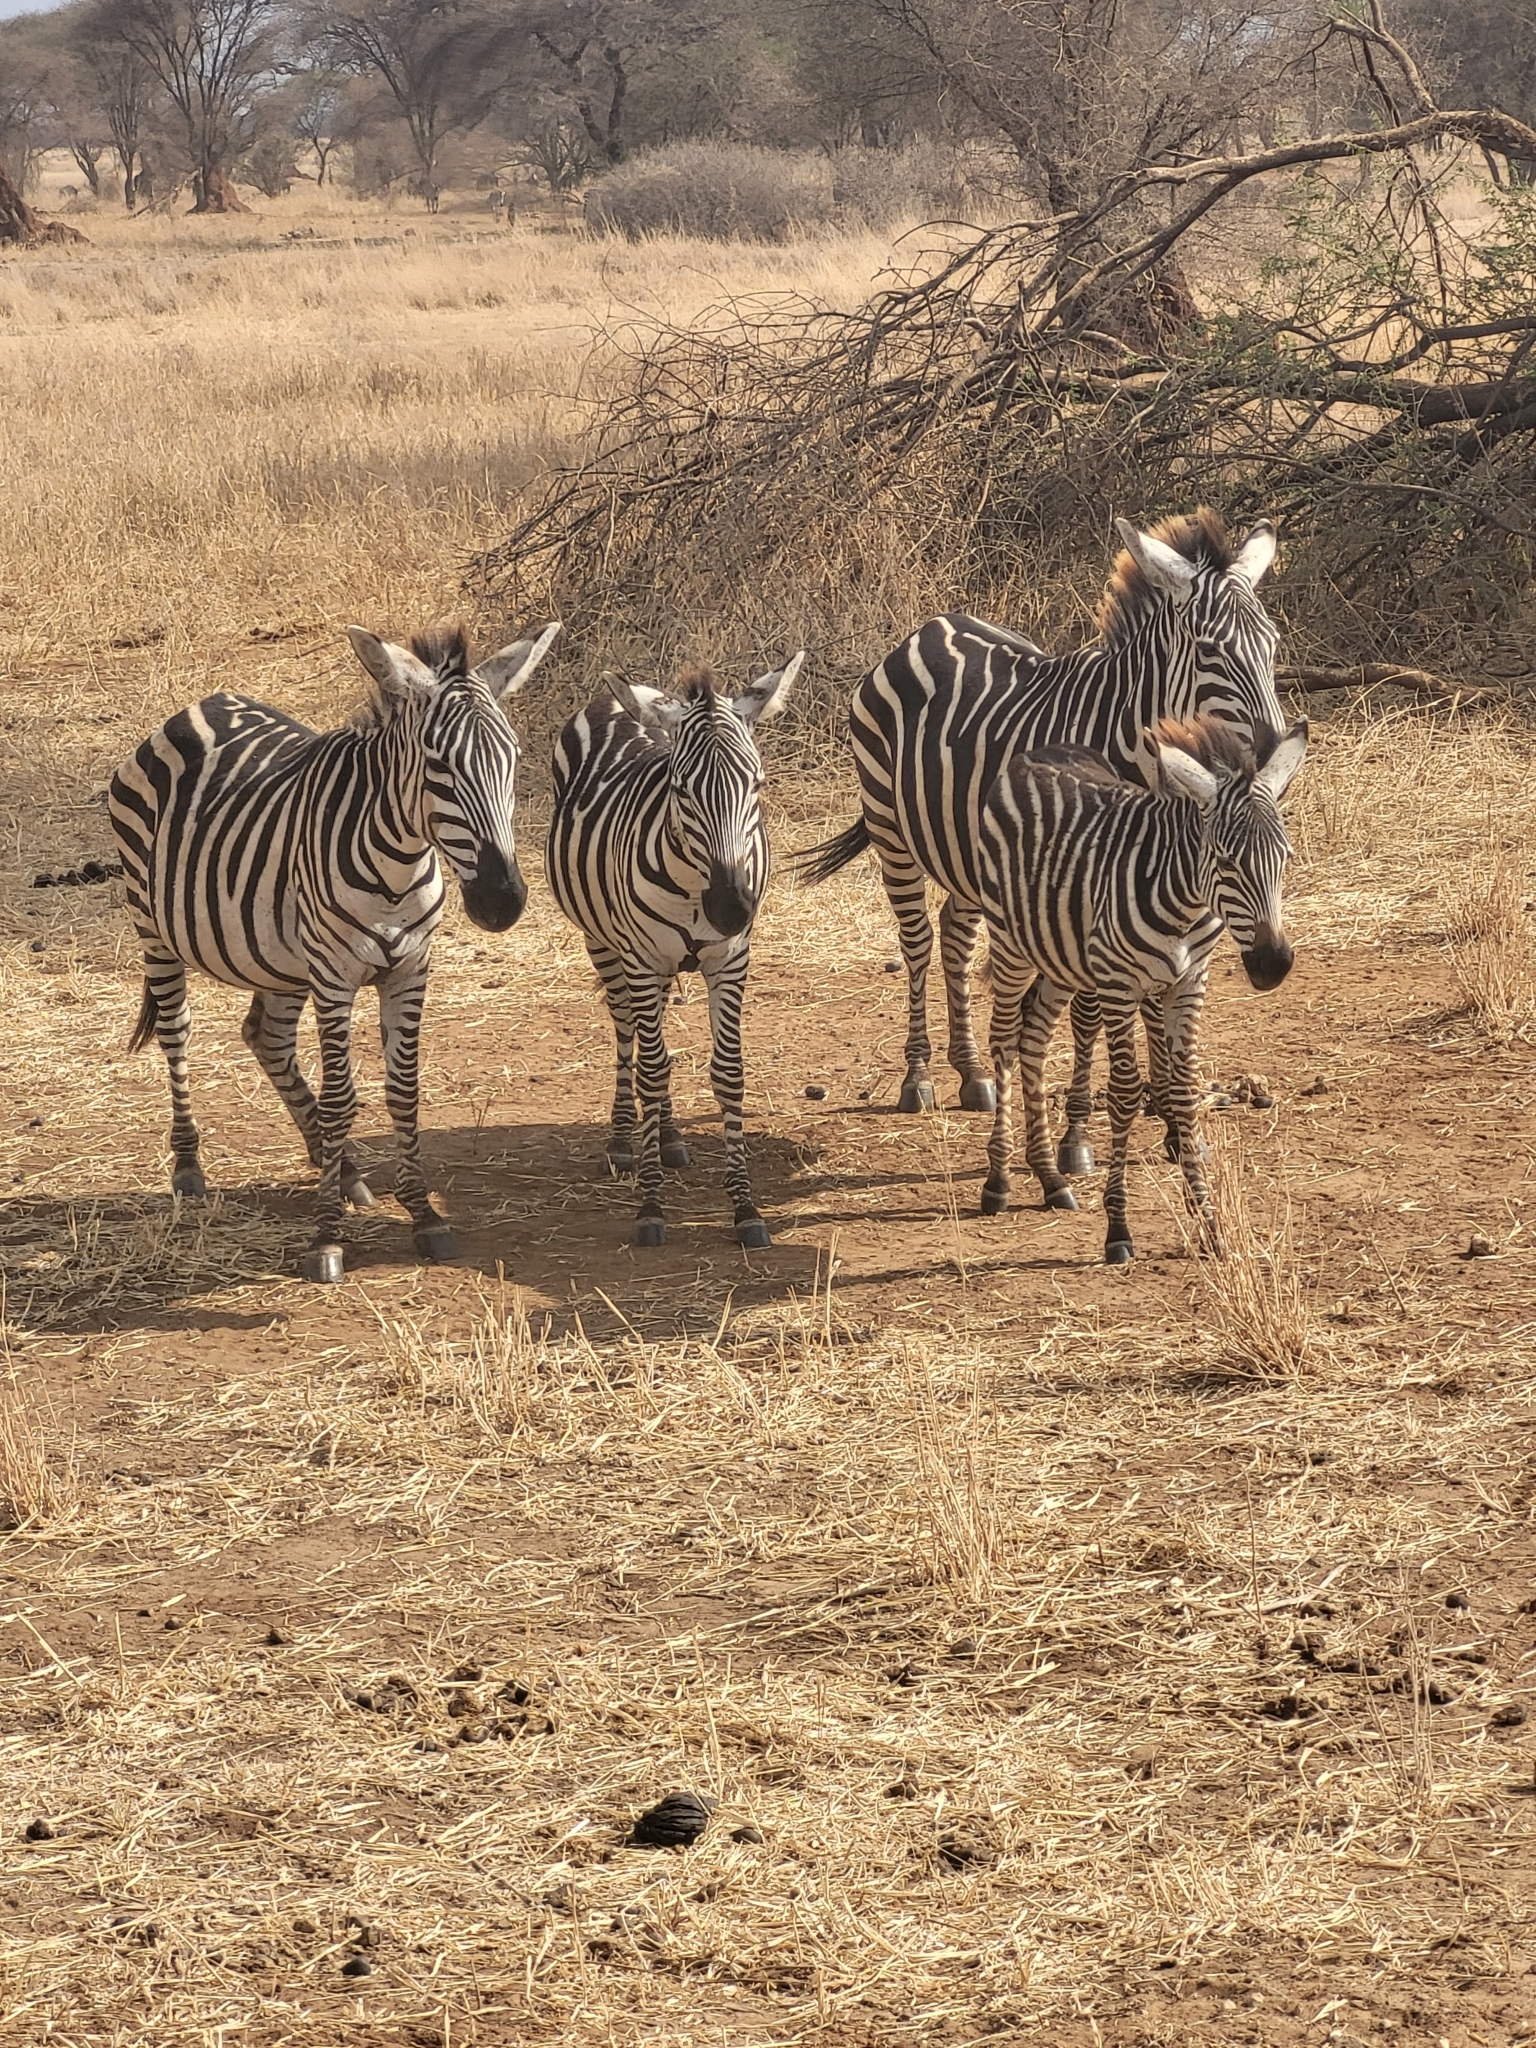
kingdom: Animalia
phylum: Chordata
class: Mammalia
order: Perissodactyla
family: Equidae
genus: Equus
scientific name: Equus quagga
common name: Plains zebra
